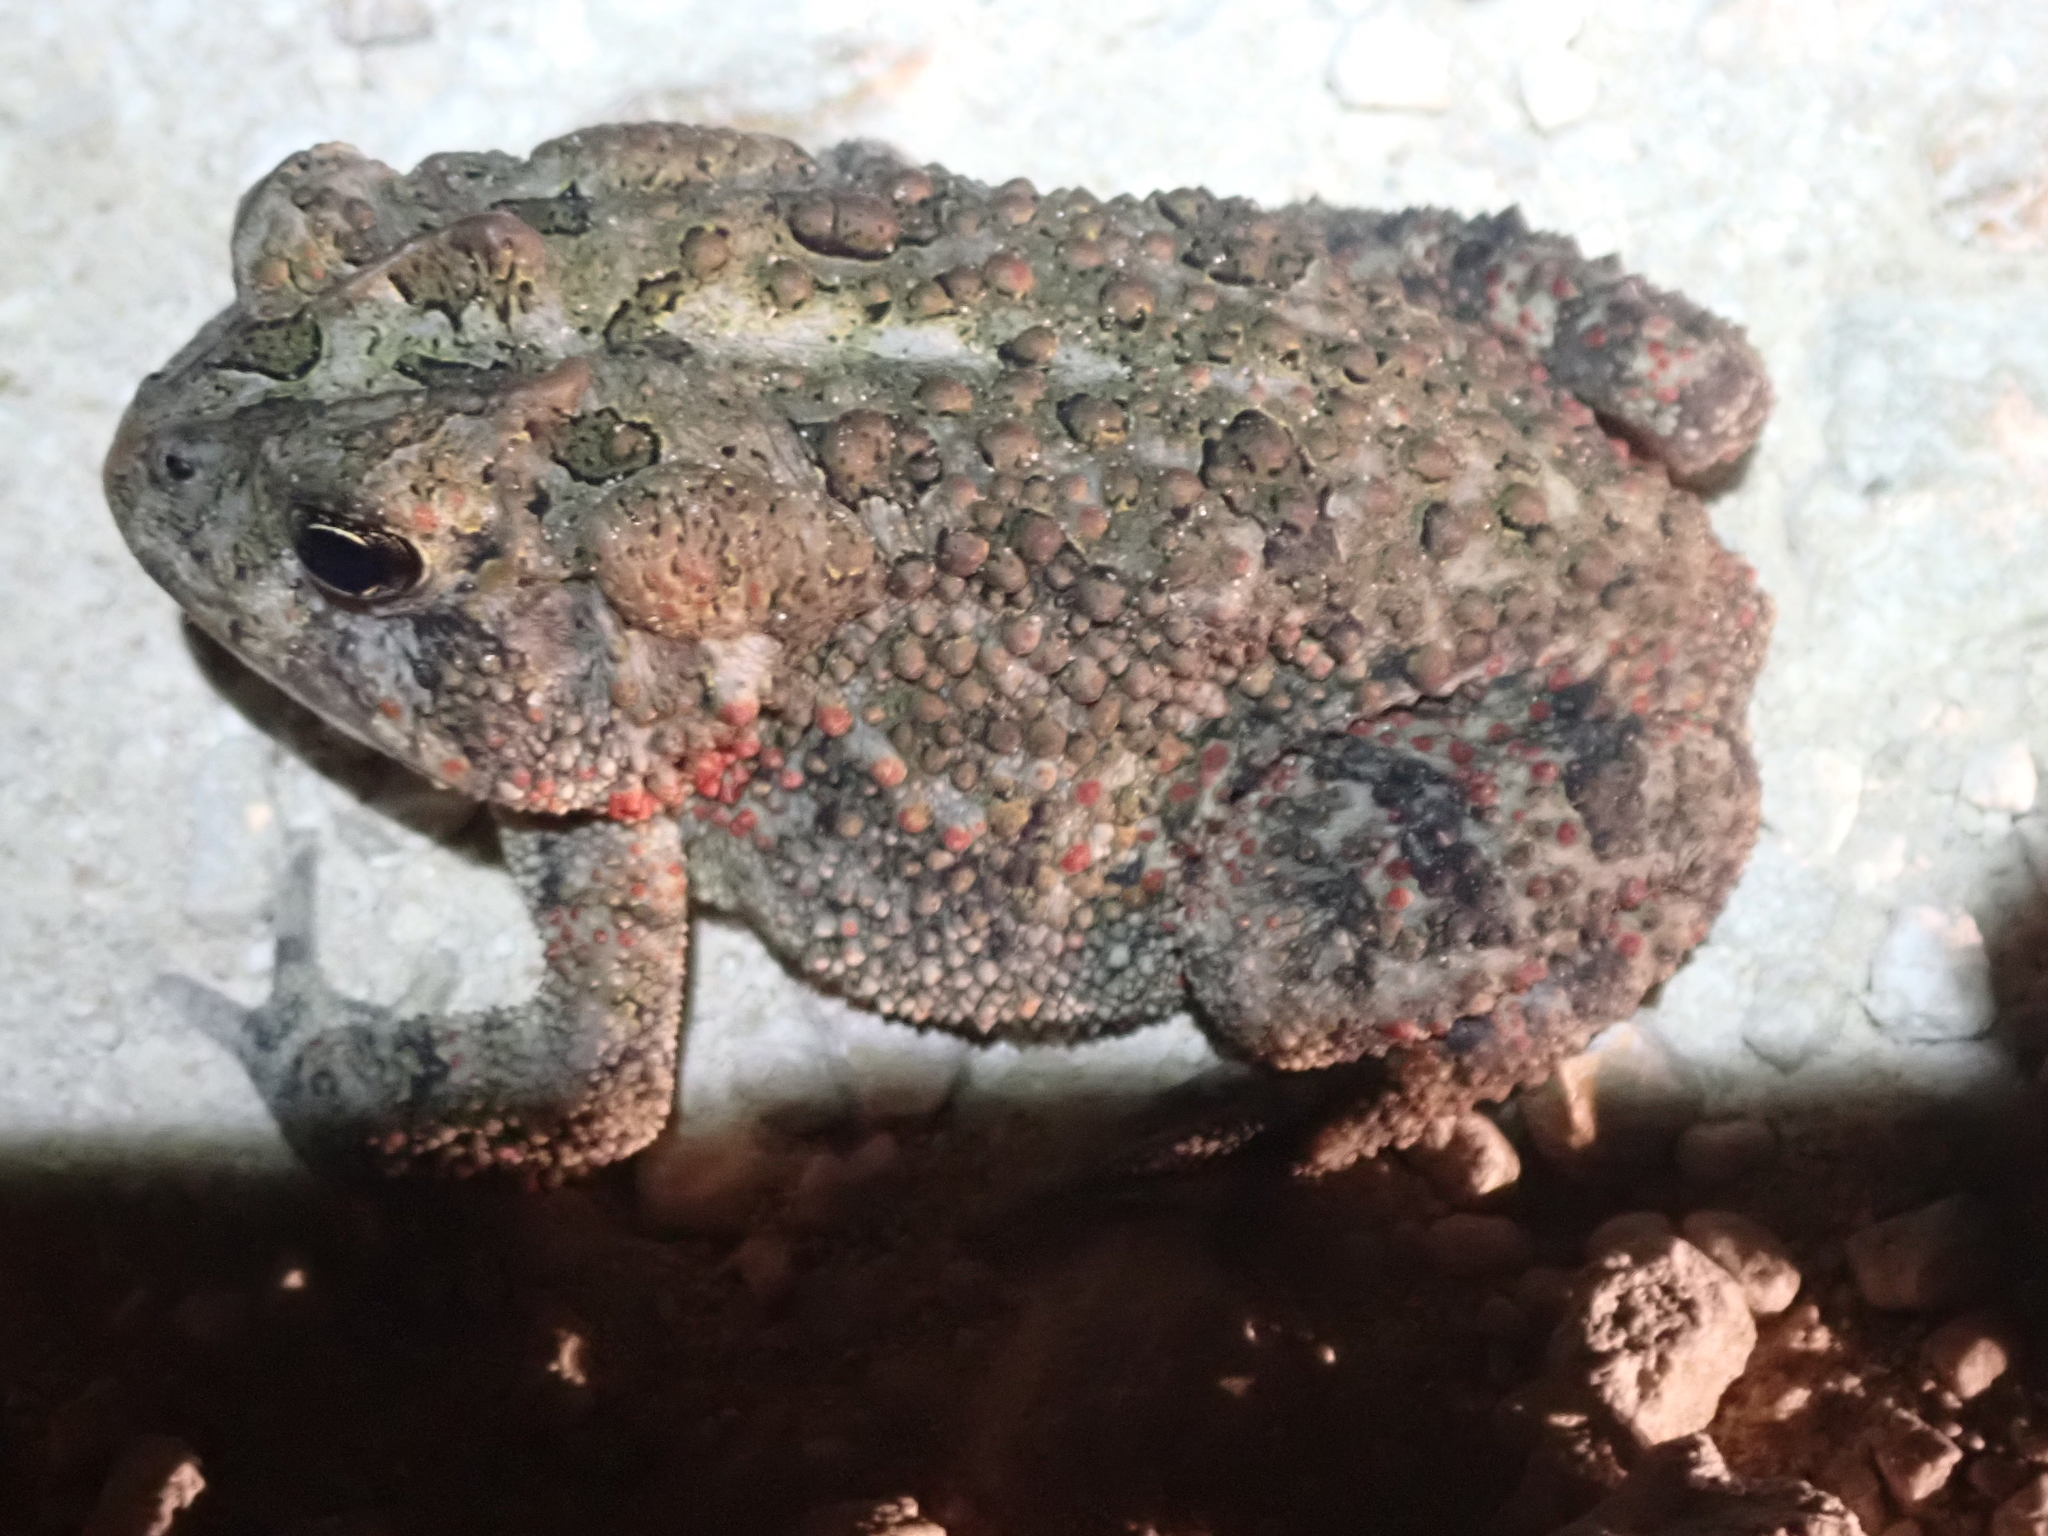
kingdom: Animalia
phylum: Chordata
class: Amphibia
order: Anura
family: Bufonidae
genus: Anaxyrus
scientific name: Anaxyrus terrestris
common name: Southern toad
